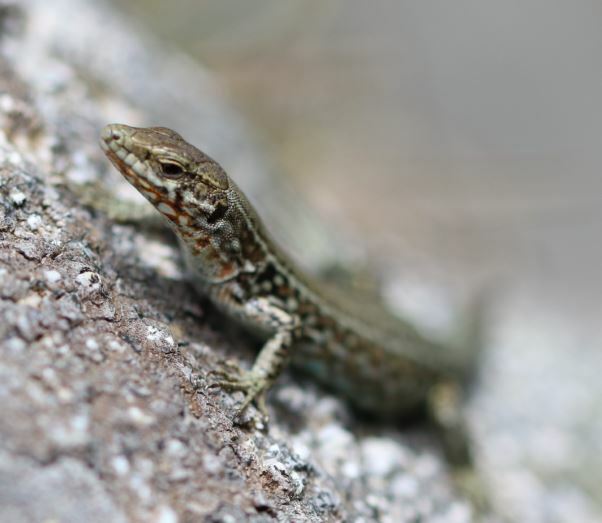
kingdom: Animalia
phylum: Chordata
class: Squamata
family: Lacertidae
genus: Podarcis
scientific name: Podarcis tiliguerta
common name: Tyrrhenian wall lizard
